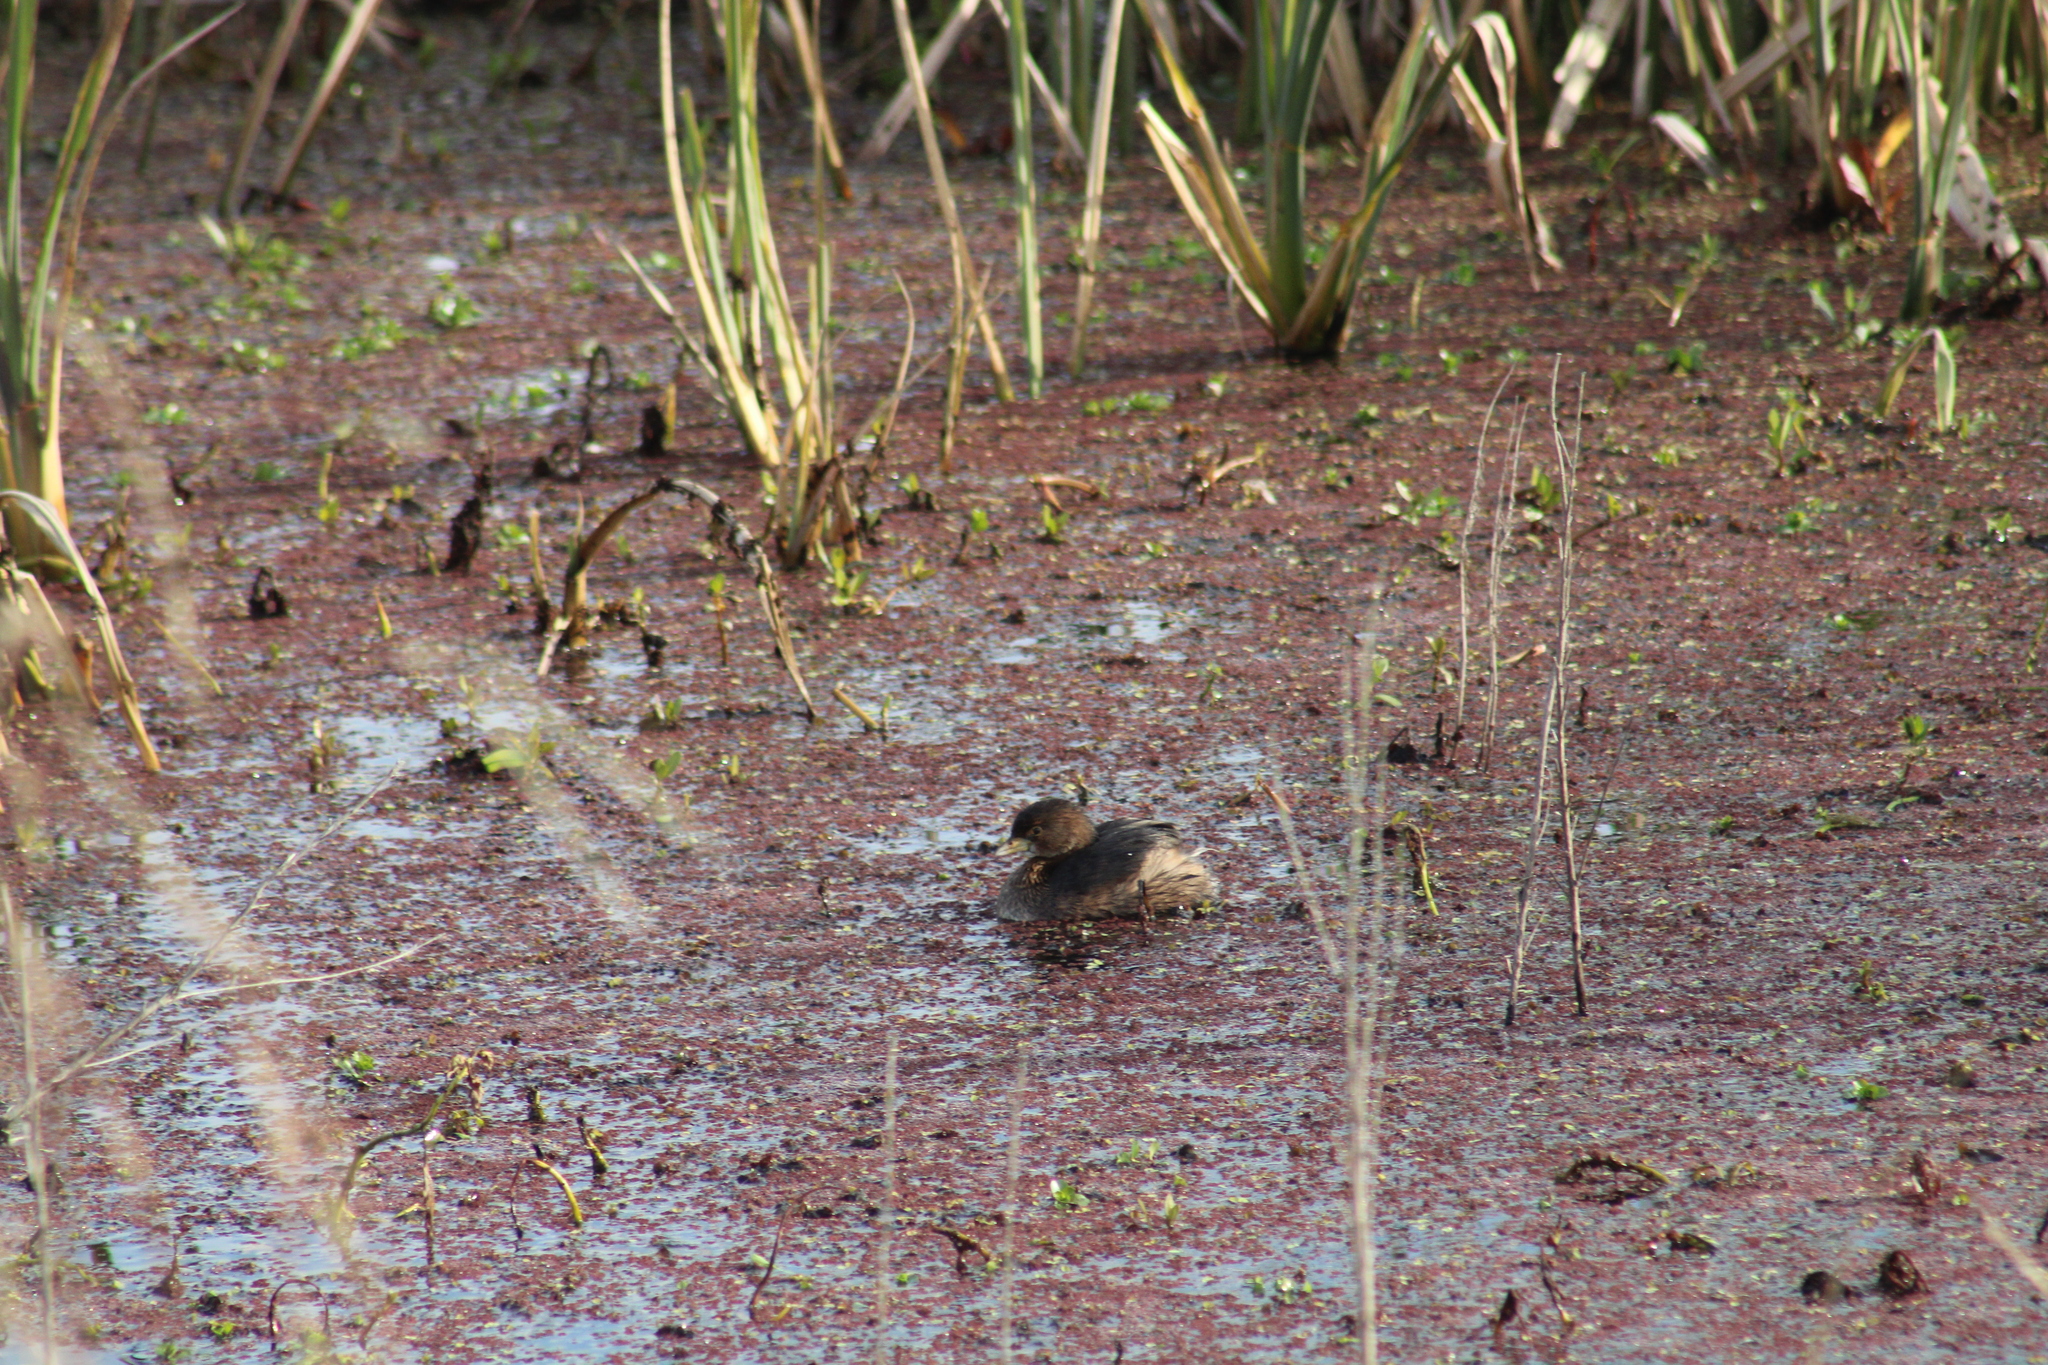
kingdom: Animalia
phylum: Chordata
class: Aves
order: Podicipediformes
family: Podicipedidae
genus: Podilymbus
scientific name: Podilymbus podiceps
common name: Pied-billed grebe
